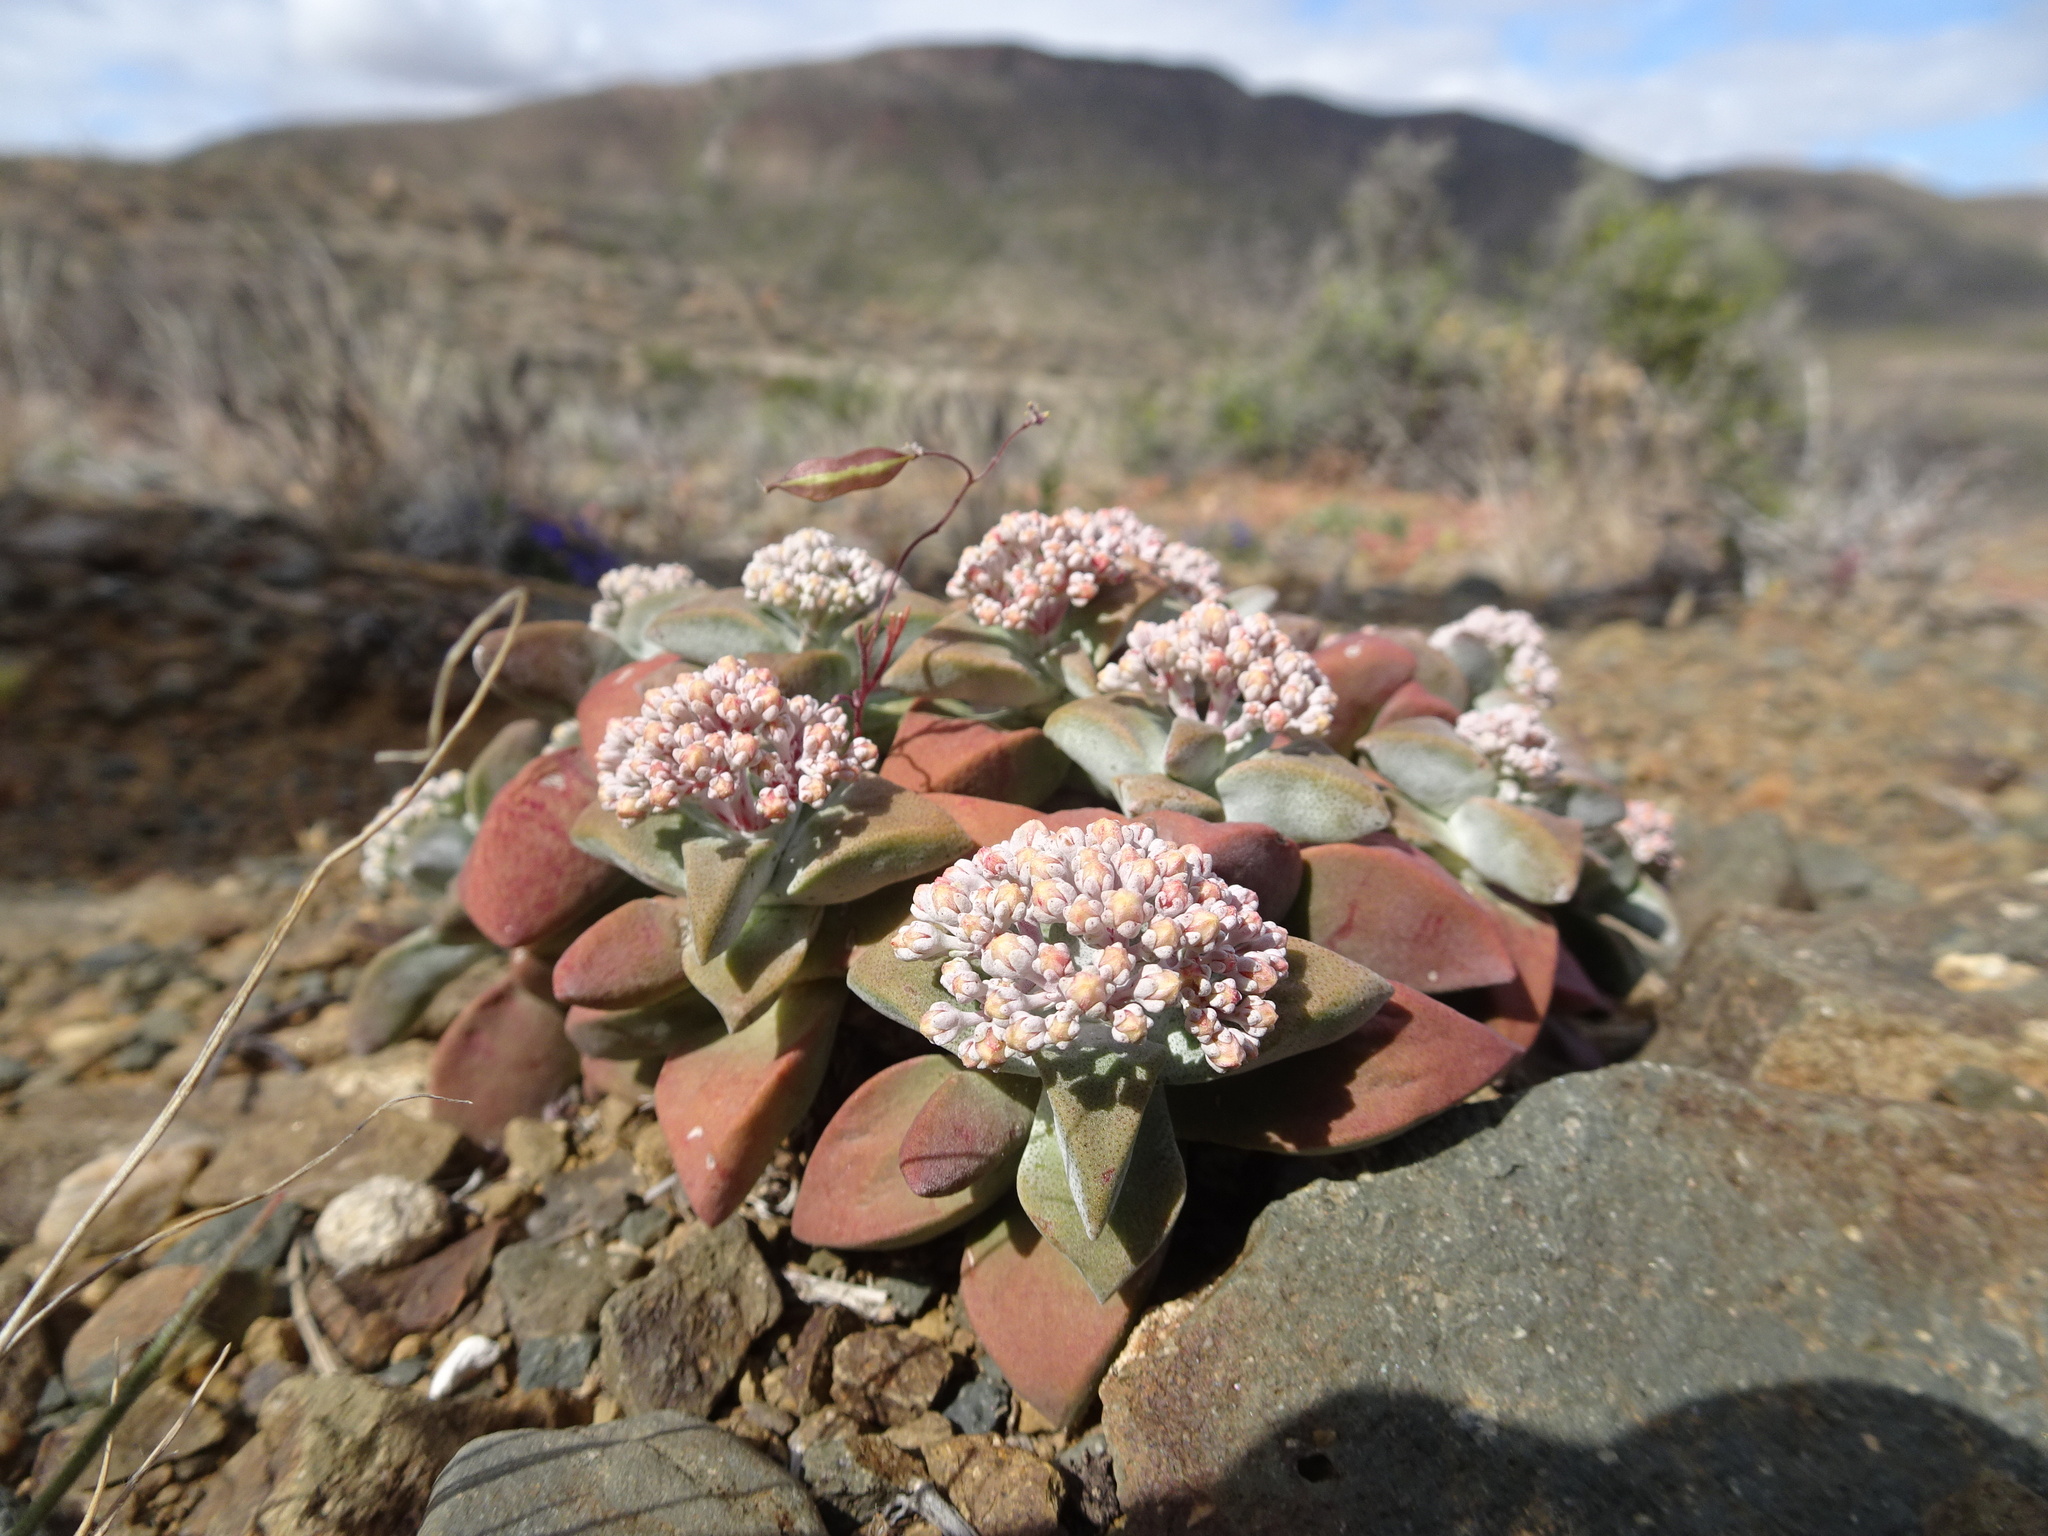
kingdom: Plantae
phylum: Tracheophyta
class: Magnoliopsida
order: Saxifragales
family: Crassulaceae
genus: Crassula
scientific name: Crassula deltoidea
